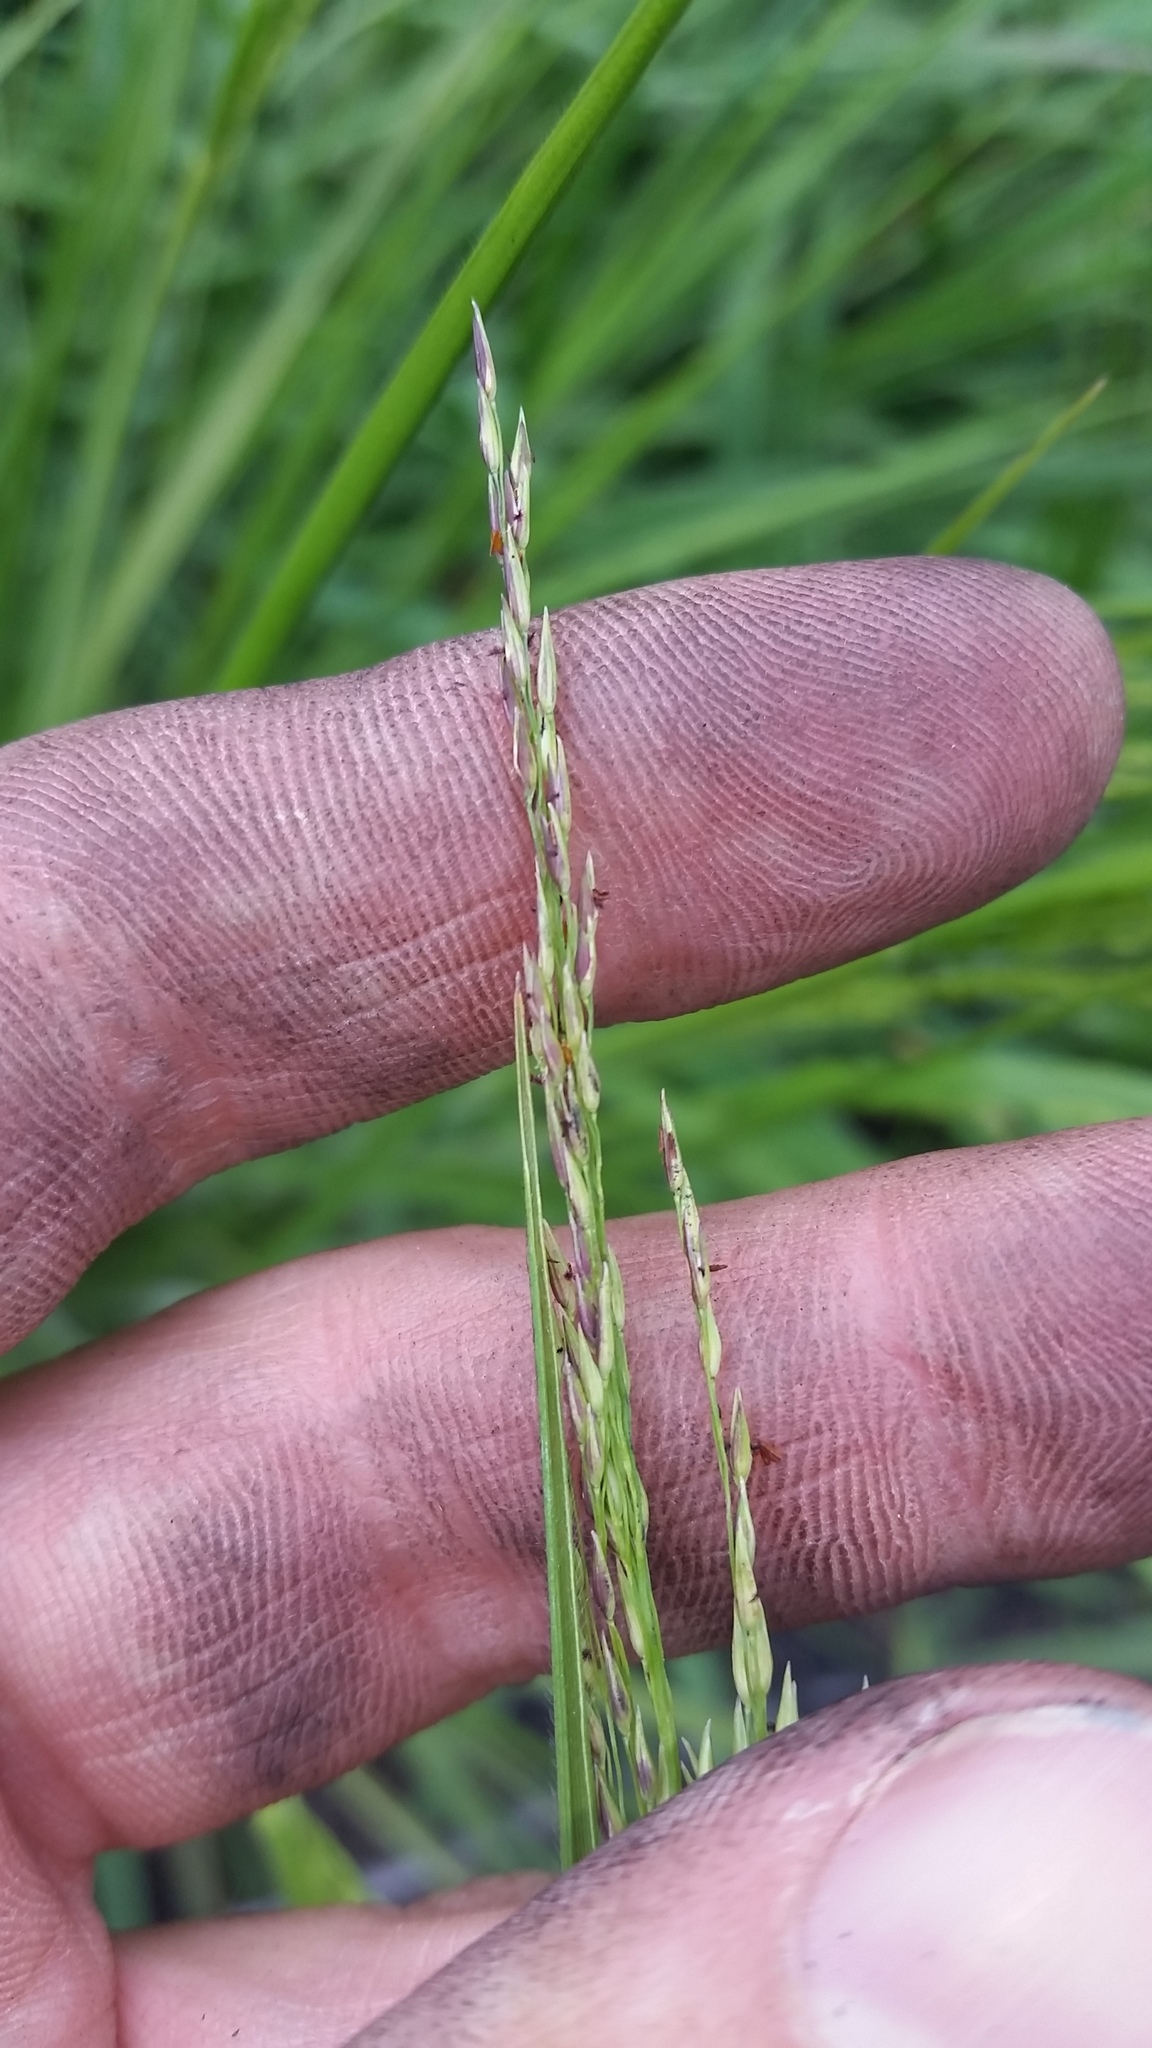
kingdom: Plantae
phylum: Tracheophyta
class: Liliopsida
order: Poales
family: Poaceae
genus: Panicum
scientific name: Panicum tenuifolium
